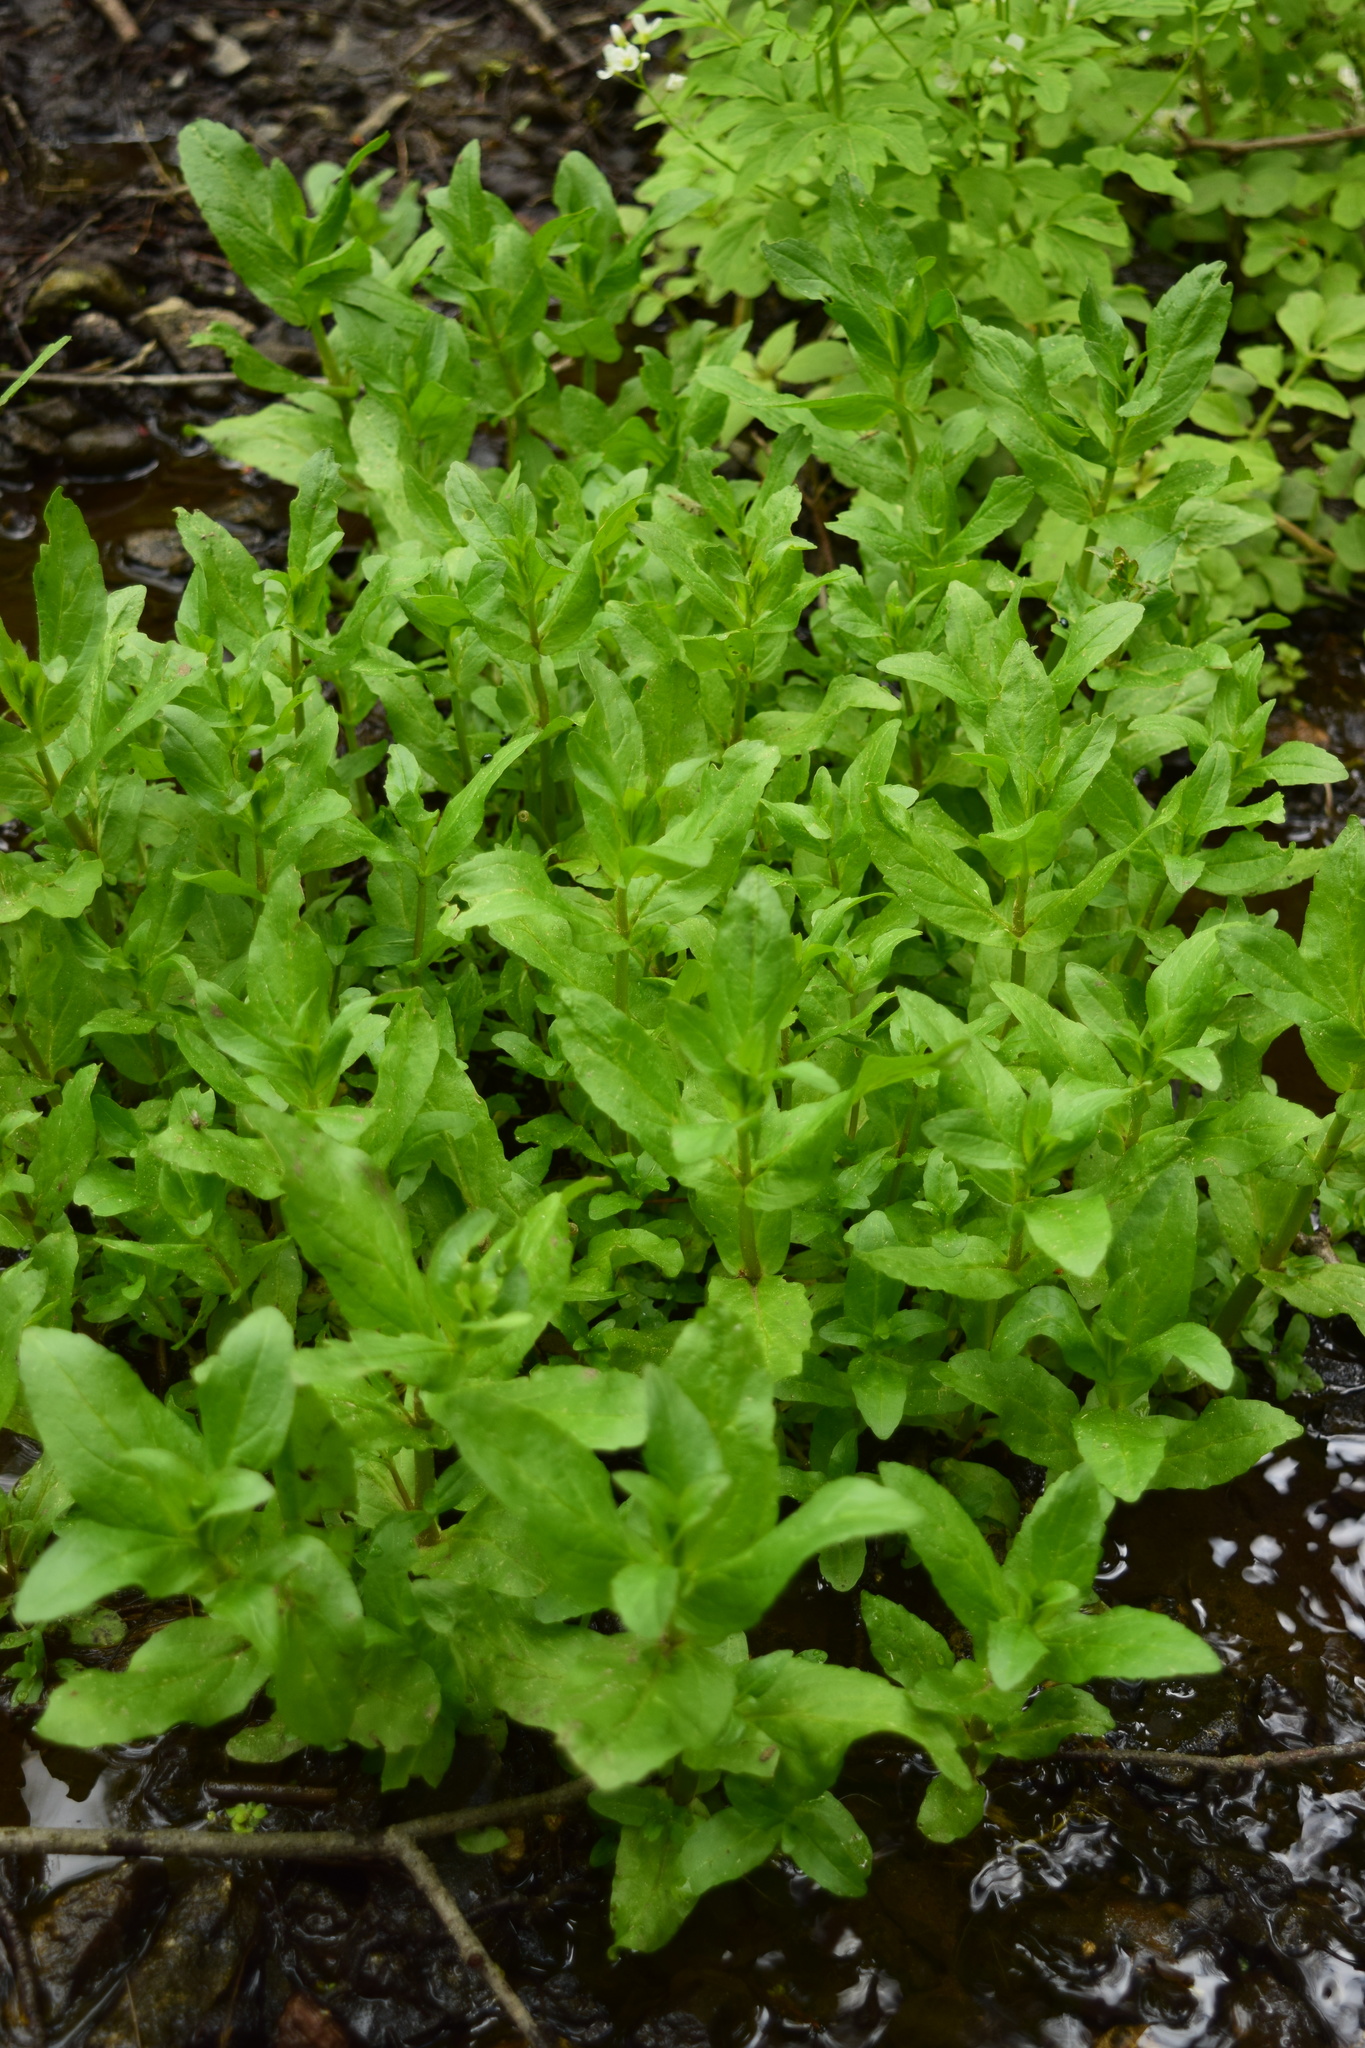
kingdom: Plantae
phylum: Tracheophyta
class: Magnoliopsida
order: Lamiales
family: Plantaginaceae
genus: Veronica
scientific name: Veronica anagallis-aquatica
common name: Water speedwell
